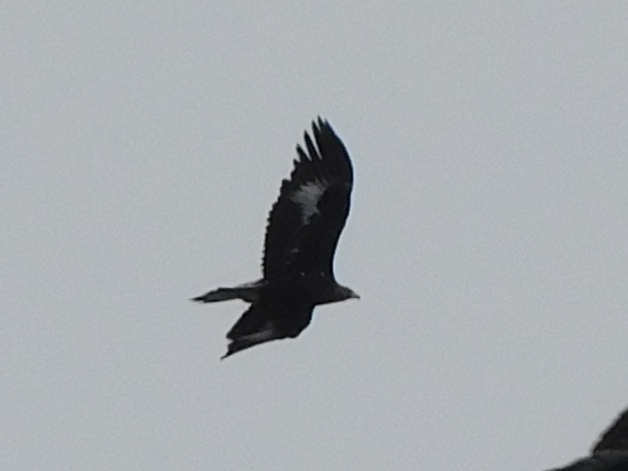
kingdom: Animalia
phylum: Chordata
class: Aves
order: Accipitriformes
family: Accipitridae
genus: Aquila
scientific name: Aquila chrysaetos
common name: Golden eagle
